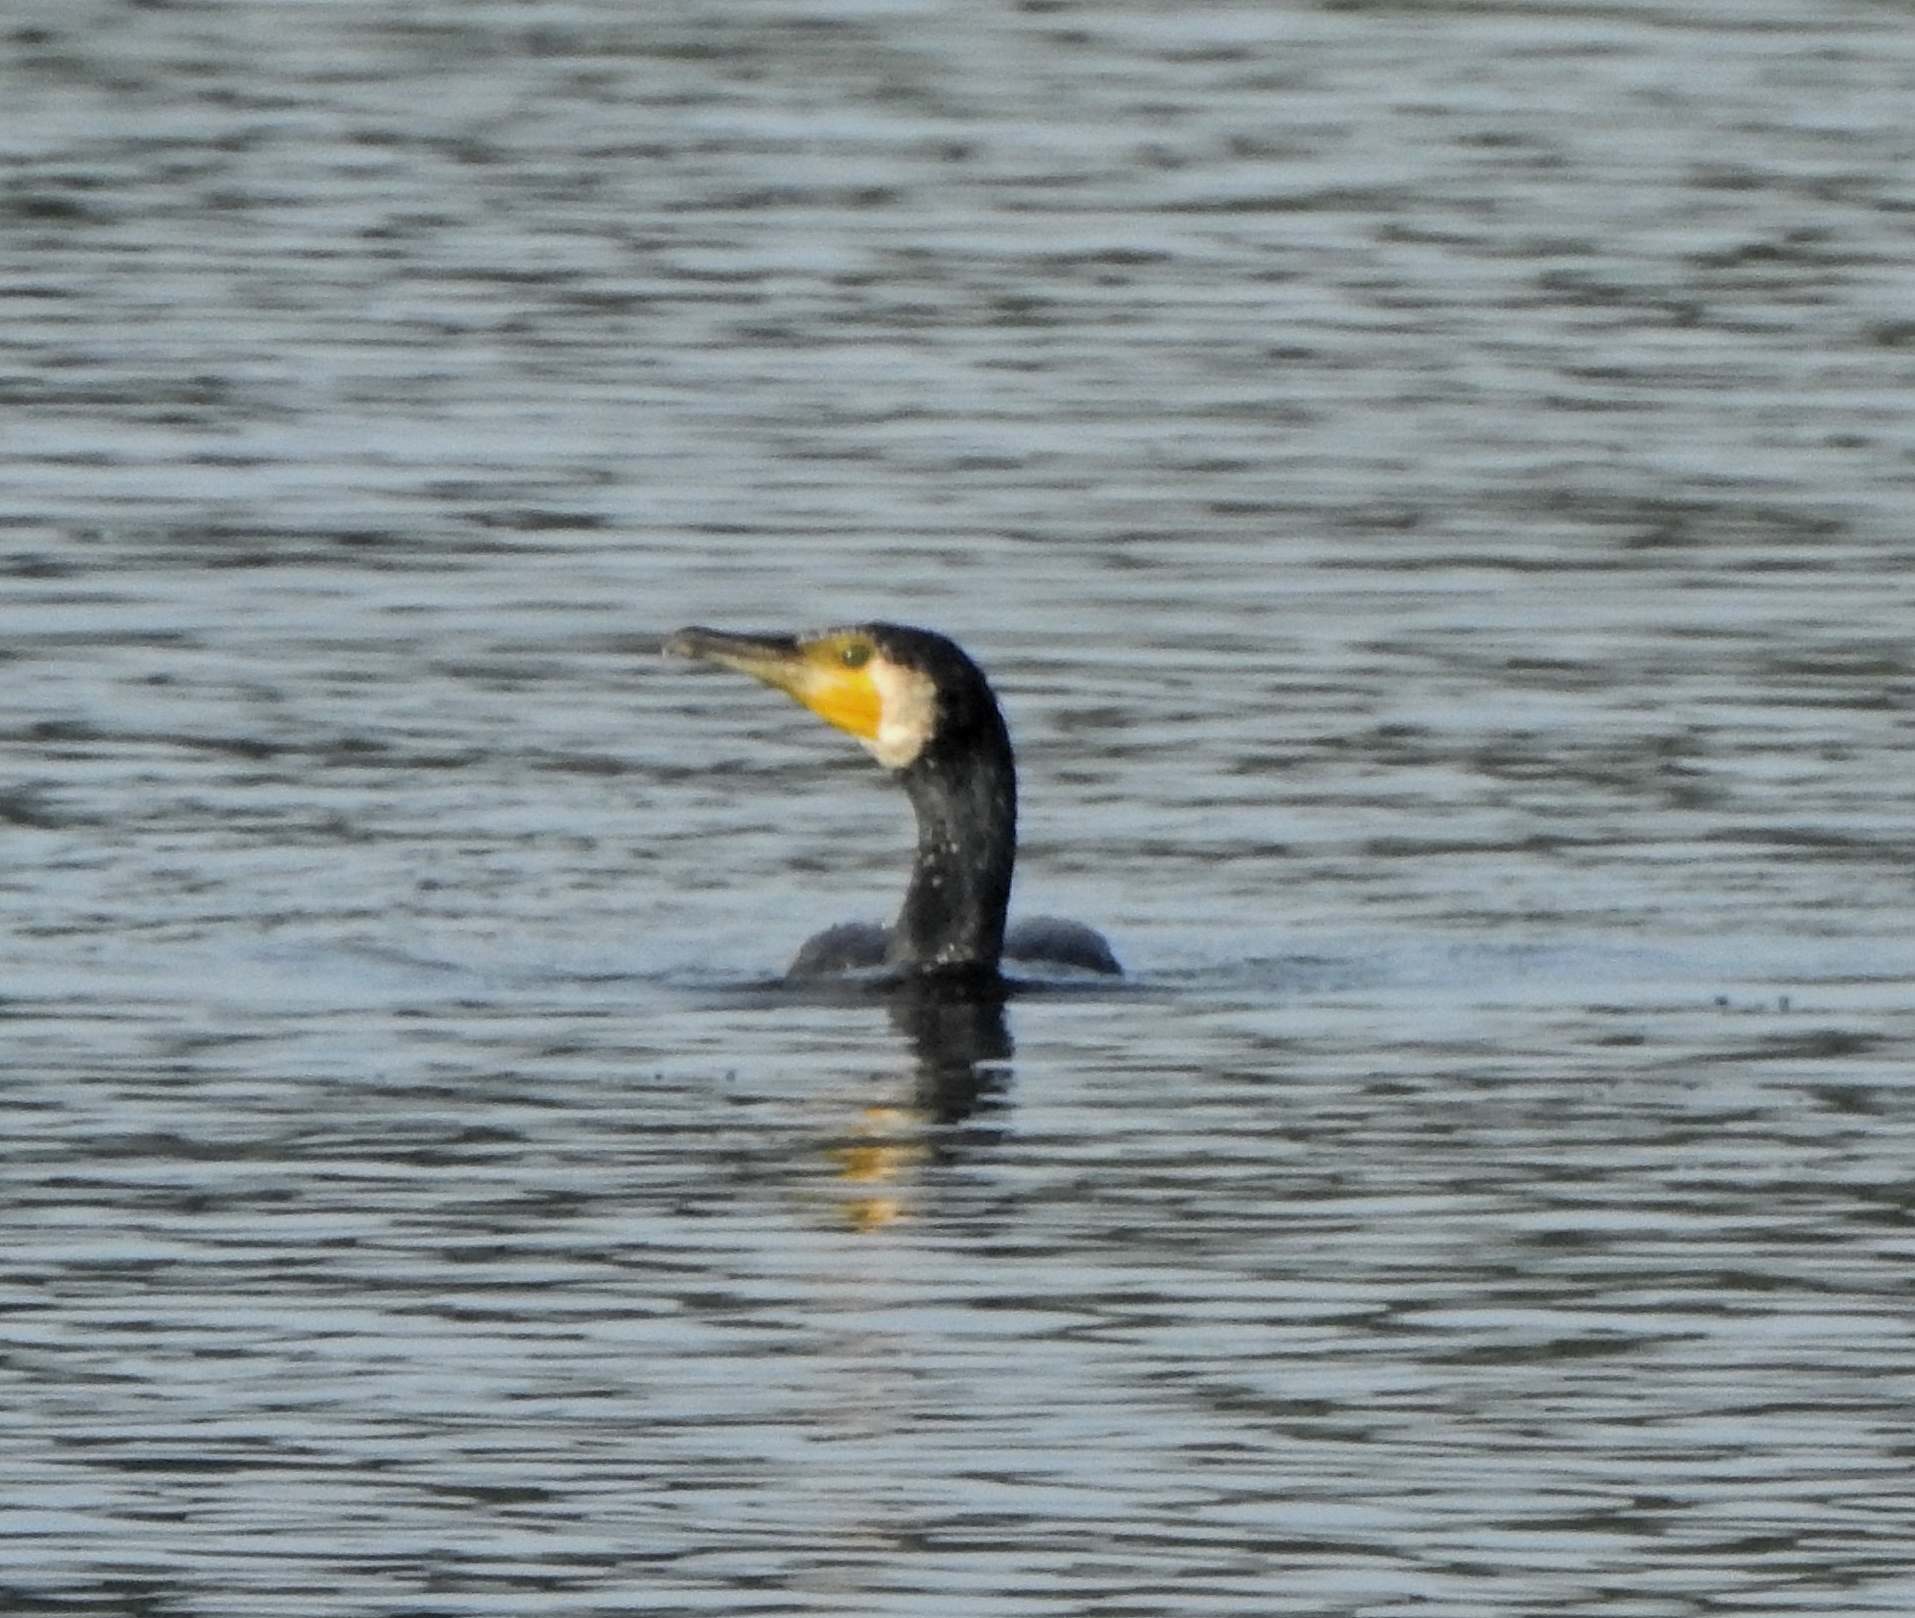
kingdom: Animalia
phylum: Chordata
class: Aves
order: Suliformes
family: Phalacrocoracidae
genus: Phalacrocorax
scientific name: Phalacrocorax carbo
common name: Great cormorant
